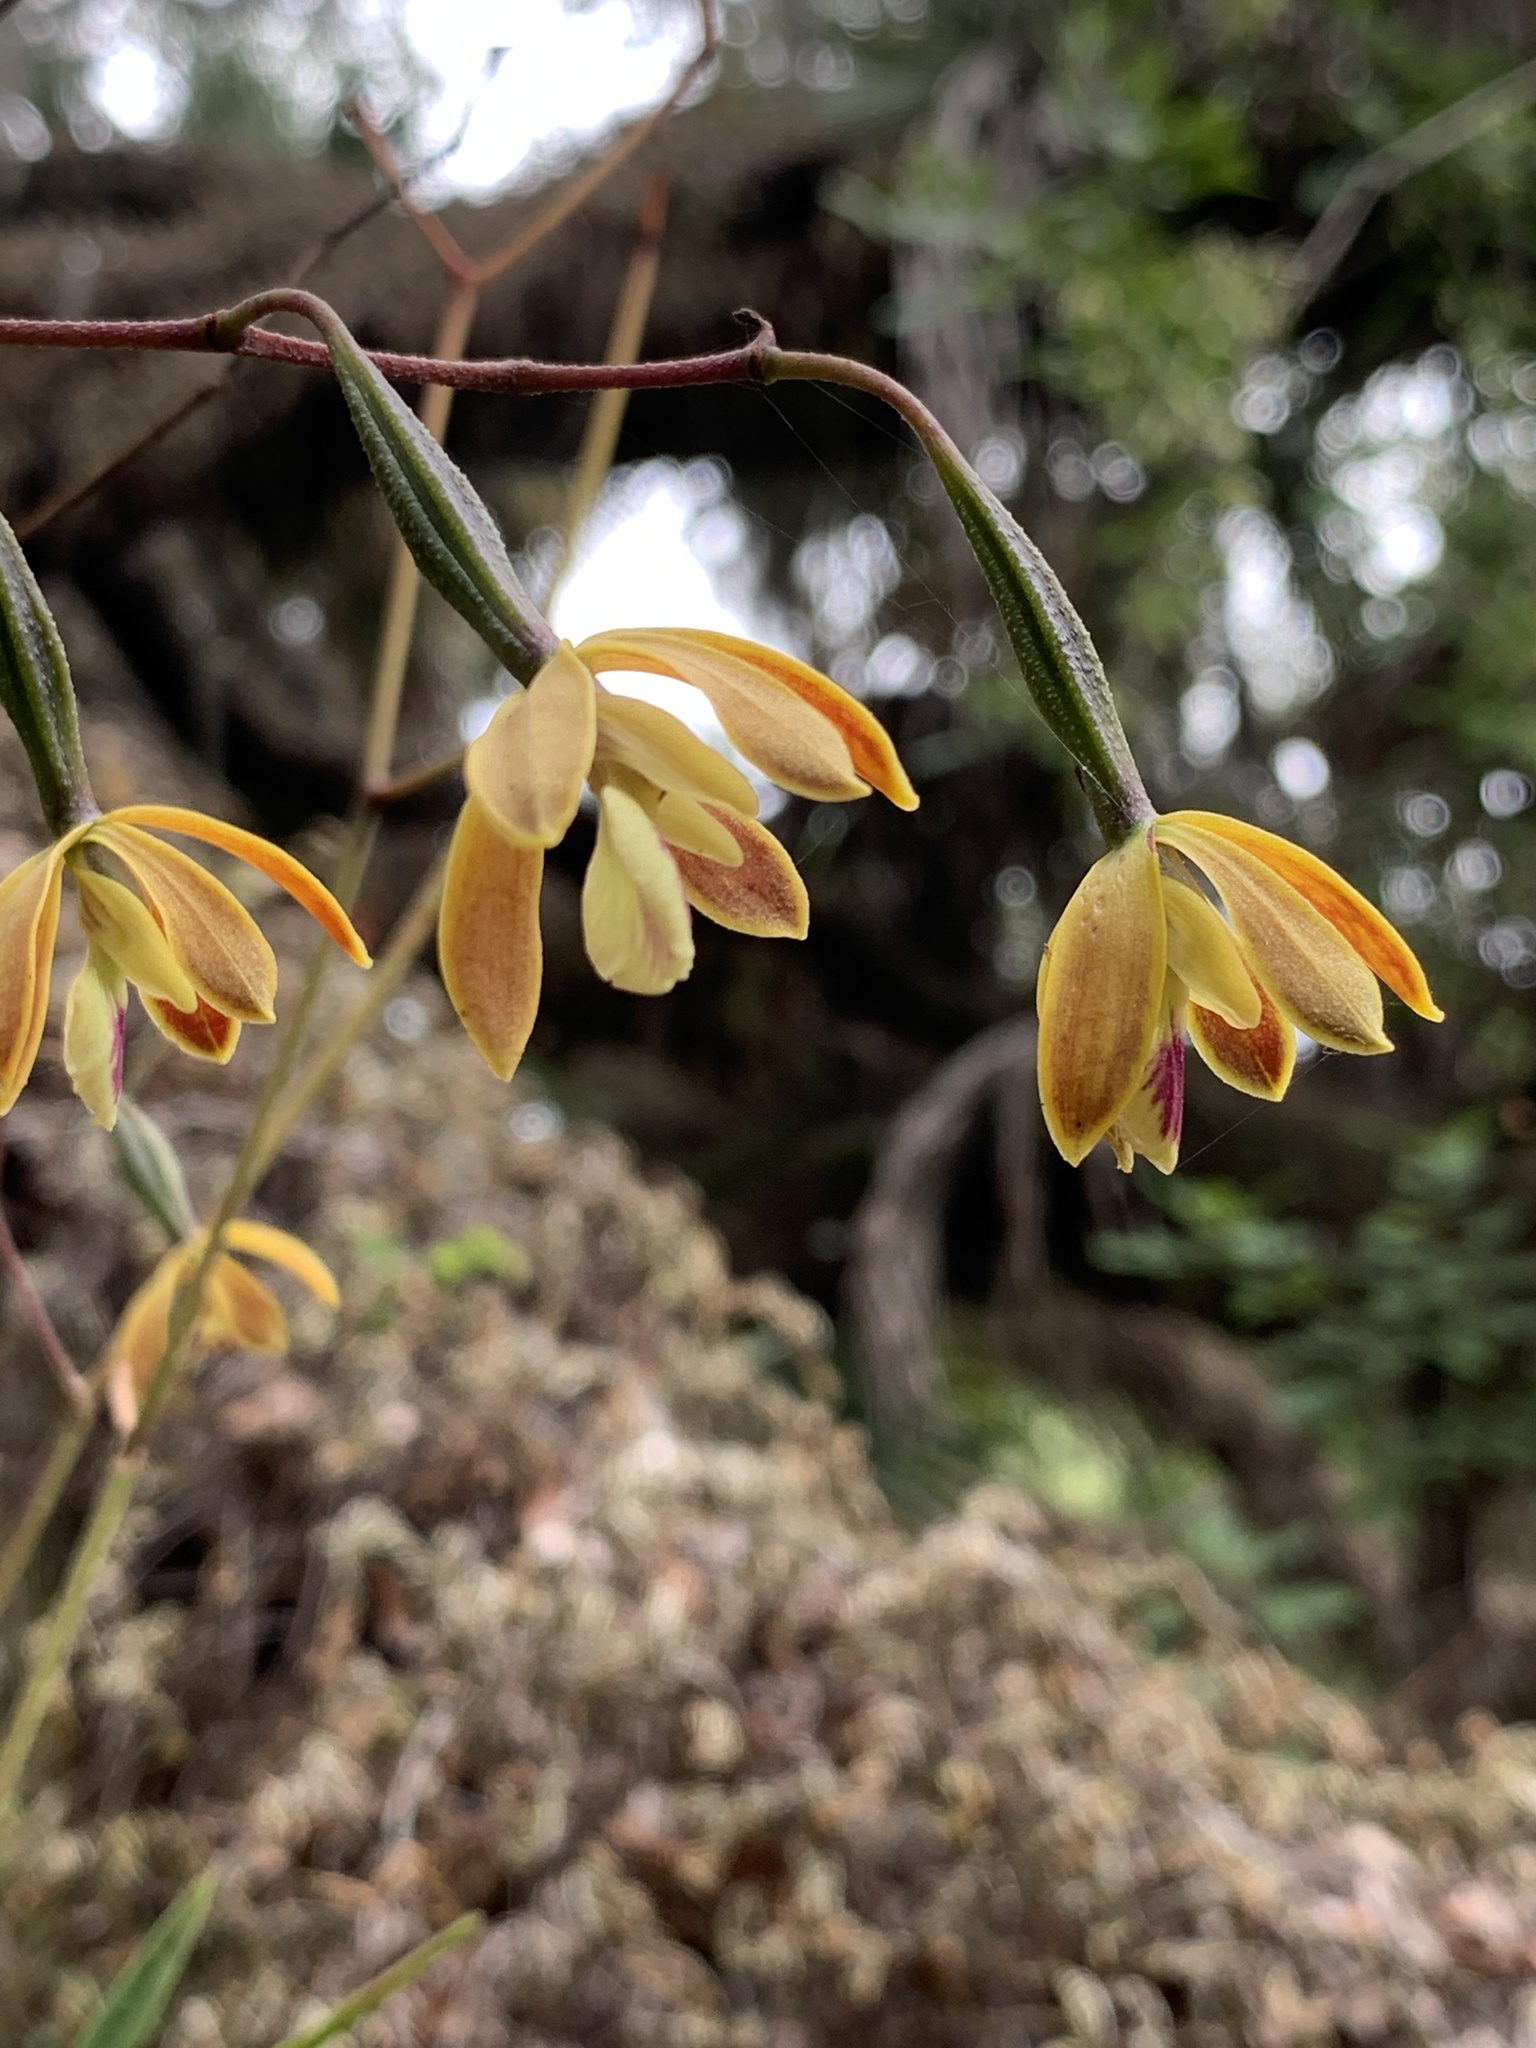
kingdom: Plantae
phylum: Tracheophyta
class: Liliopsida
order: Asparagales
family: Orchidaceae
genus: Encyclia
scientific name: Encyclia tampensis
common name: Florida butterfly orchid
